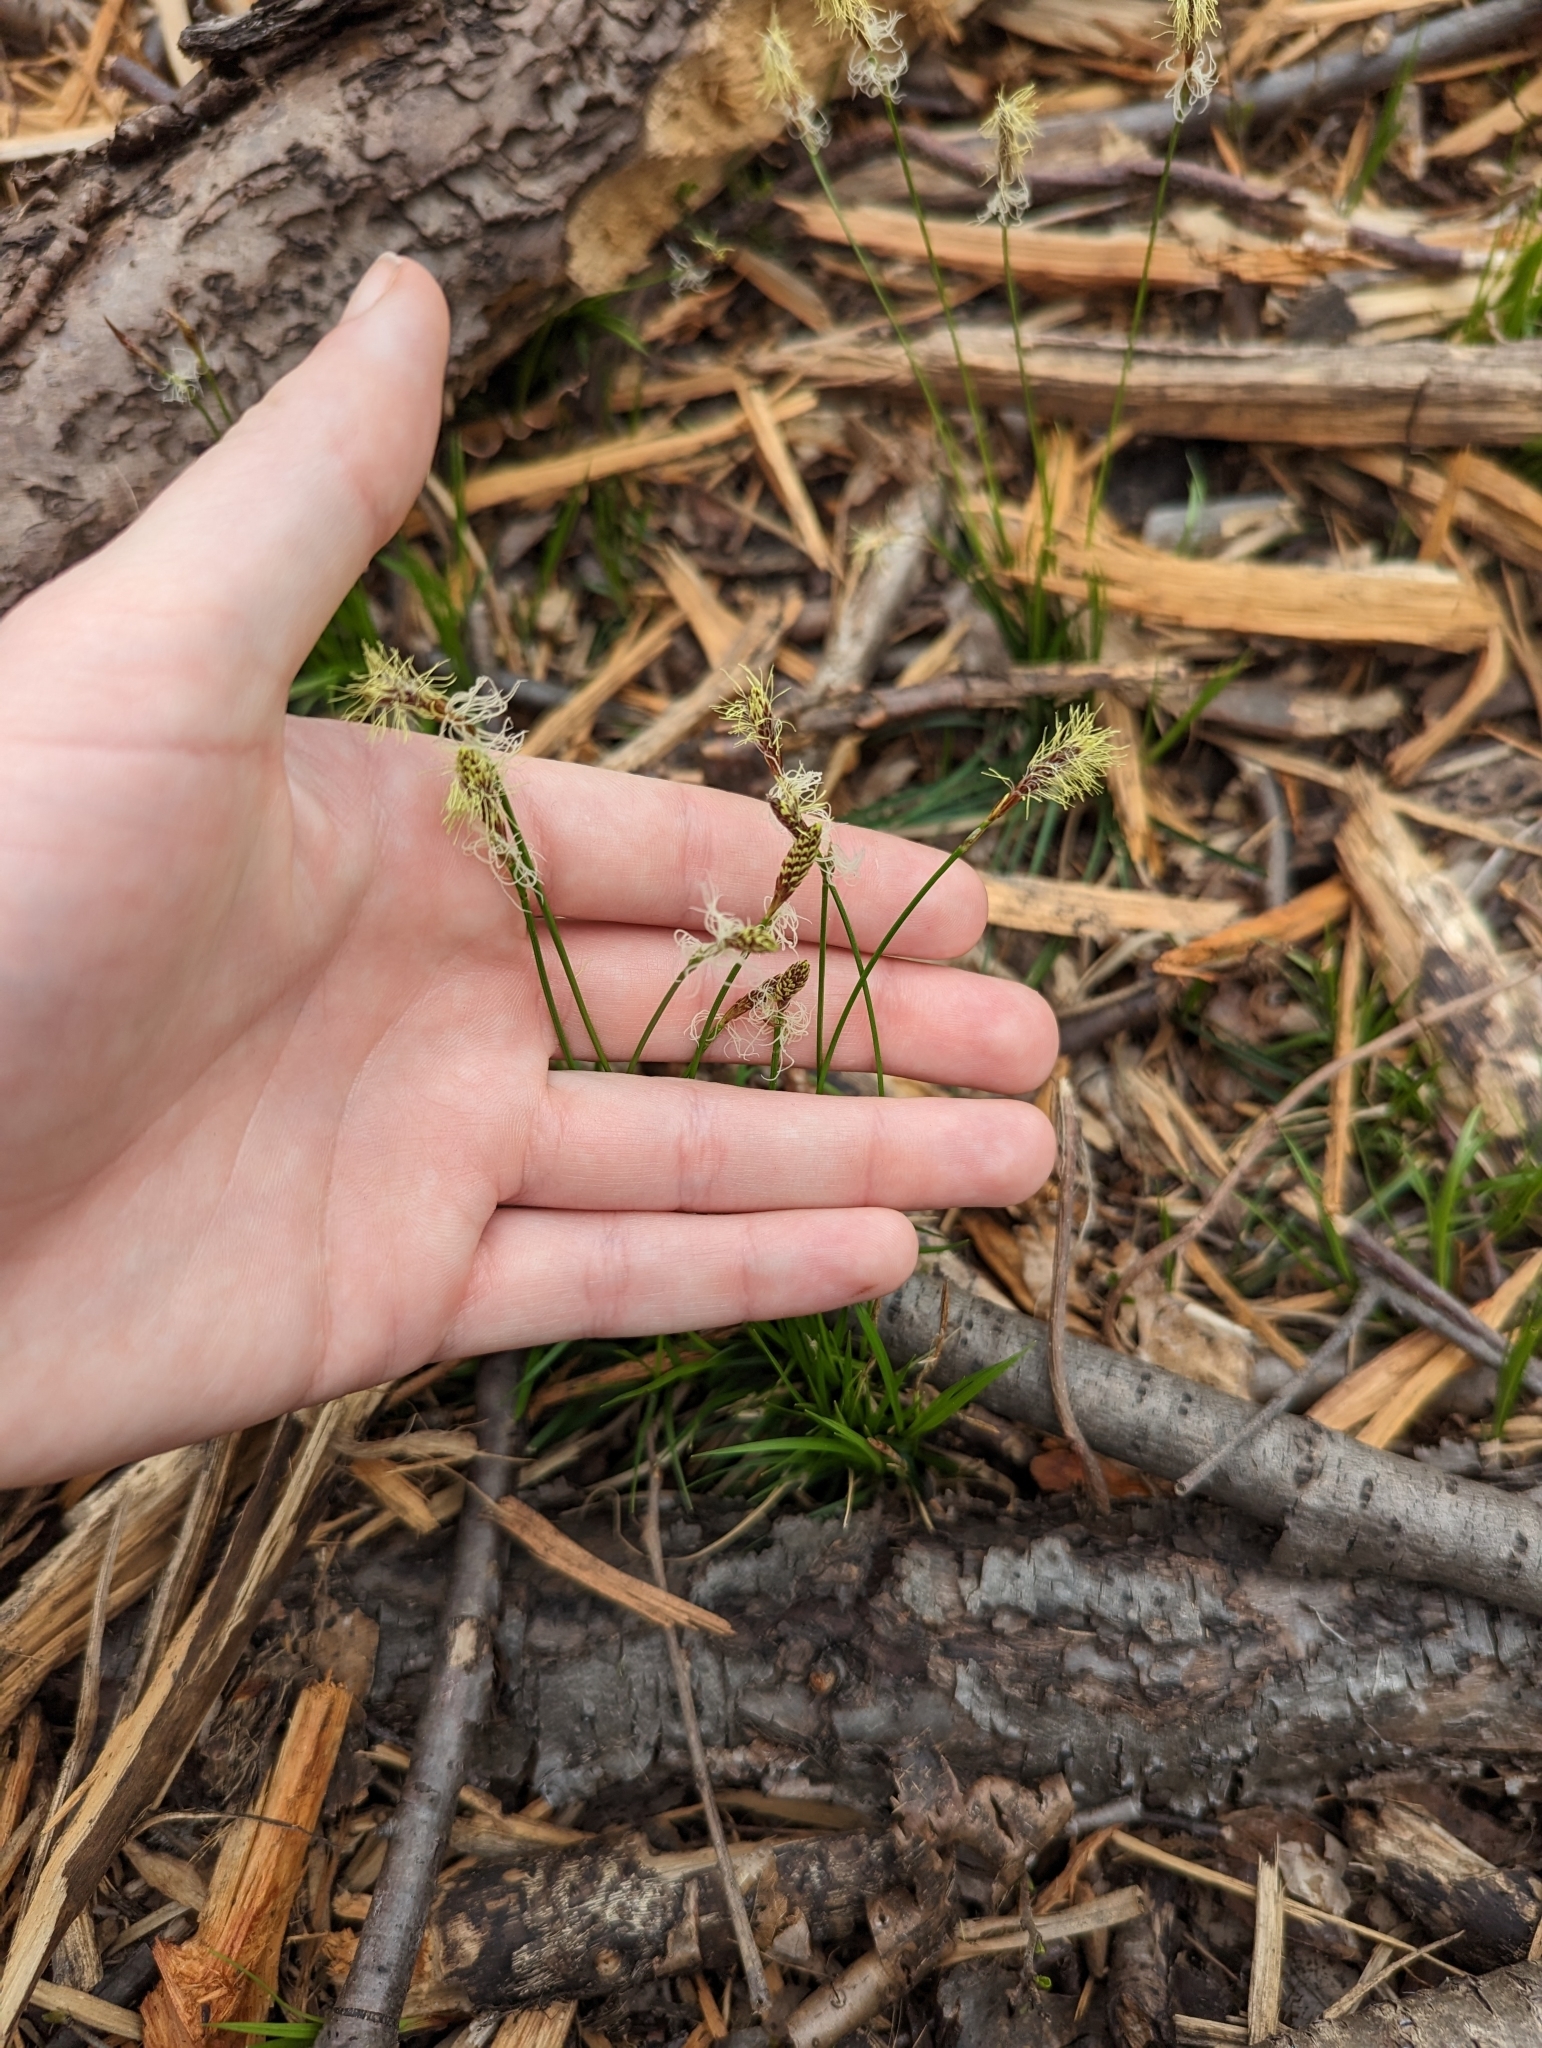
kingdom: Plantae
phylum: Tracheophyta
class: Liliopsida
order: Poales
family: Cyperaceae
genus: Carex
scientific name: Carex pensylvanica
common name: Common oak sedge
